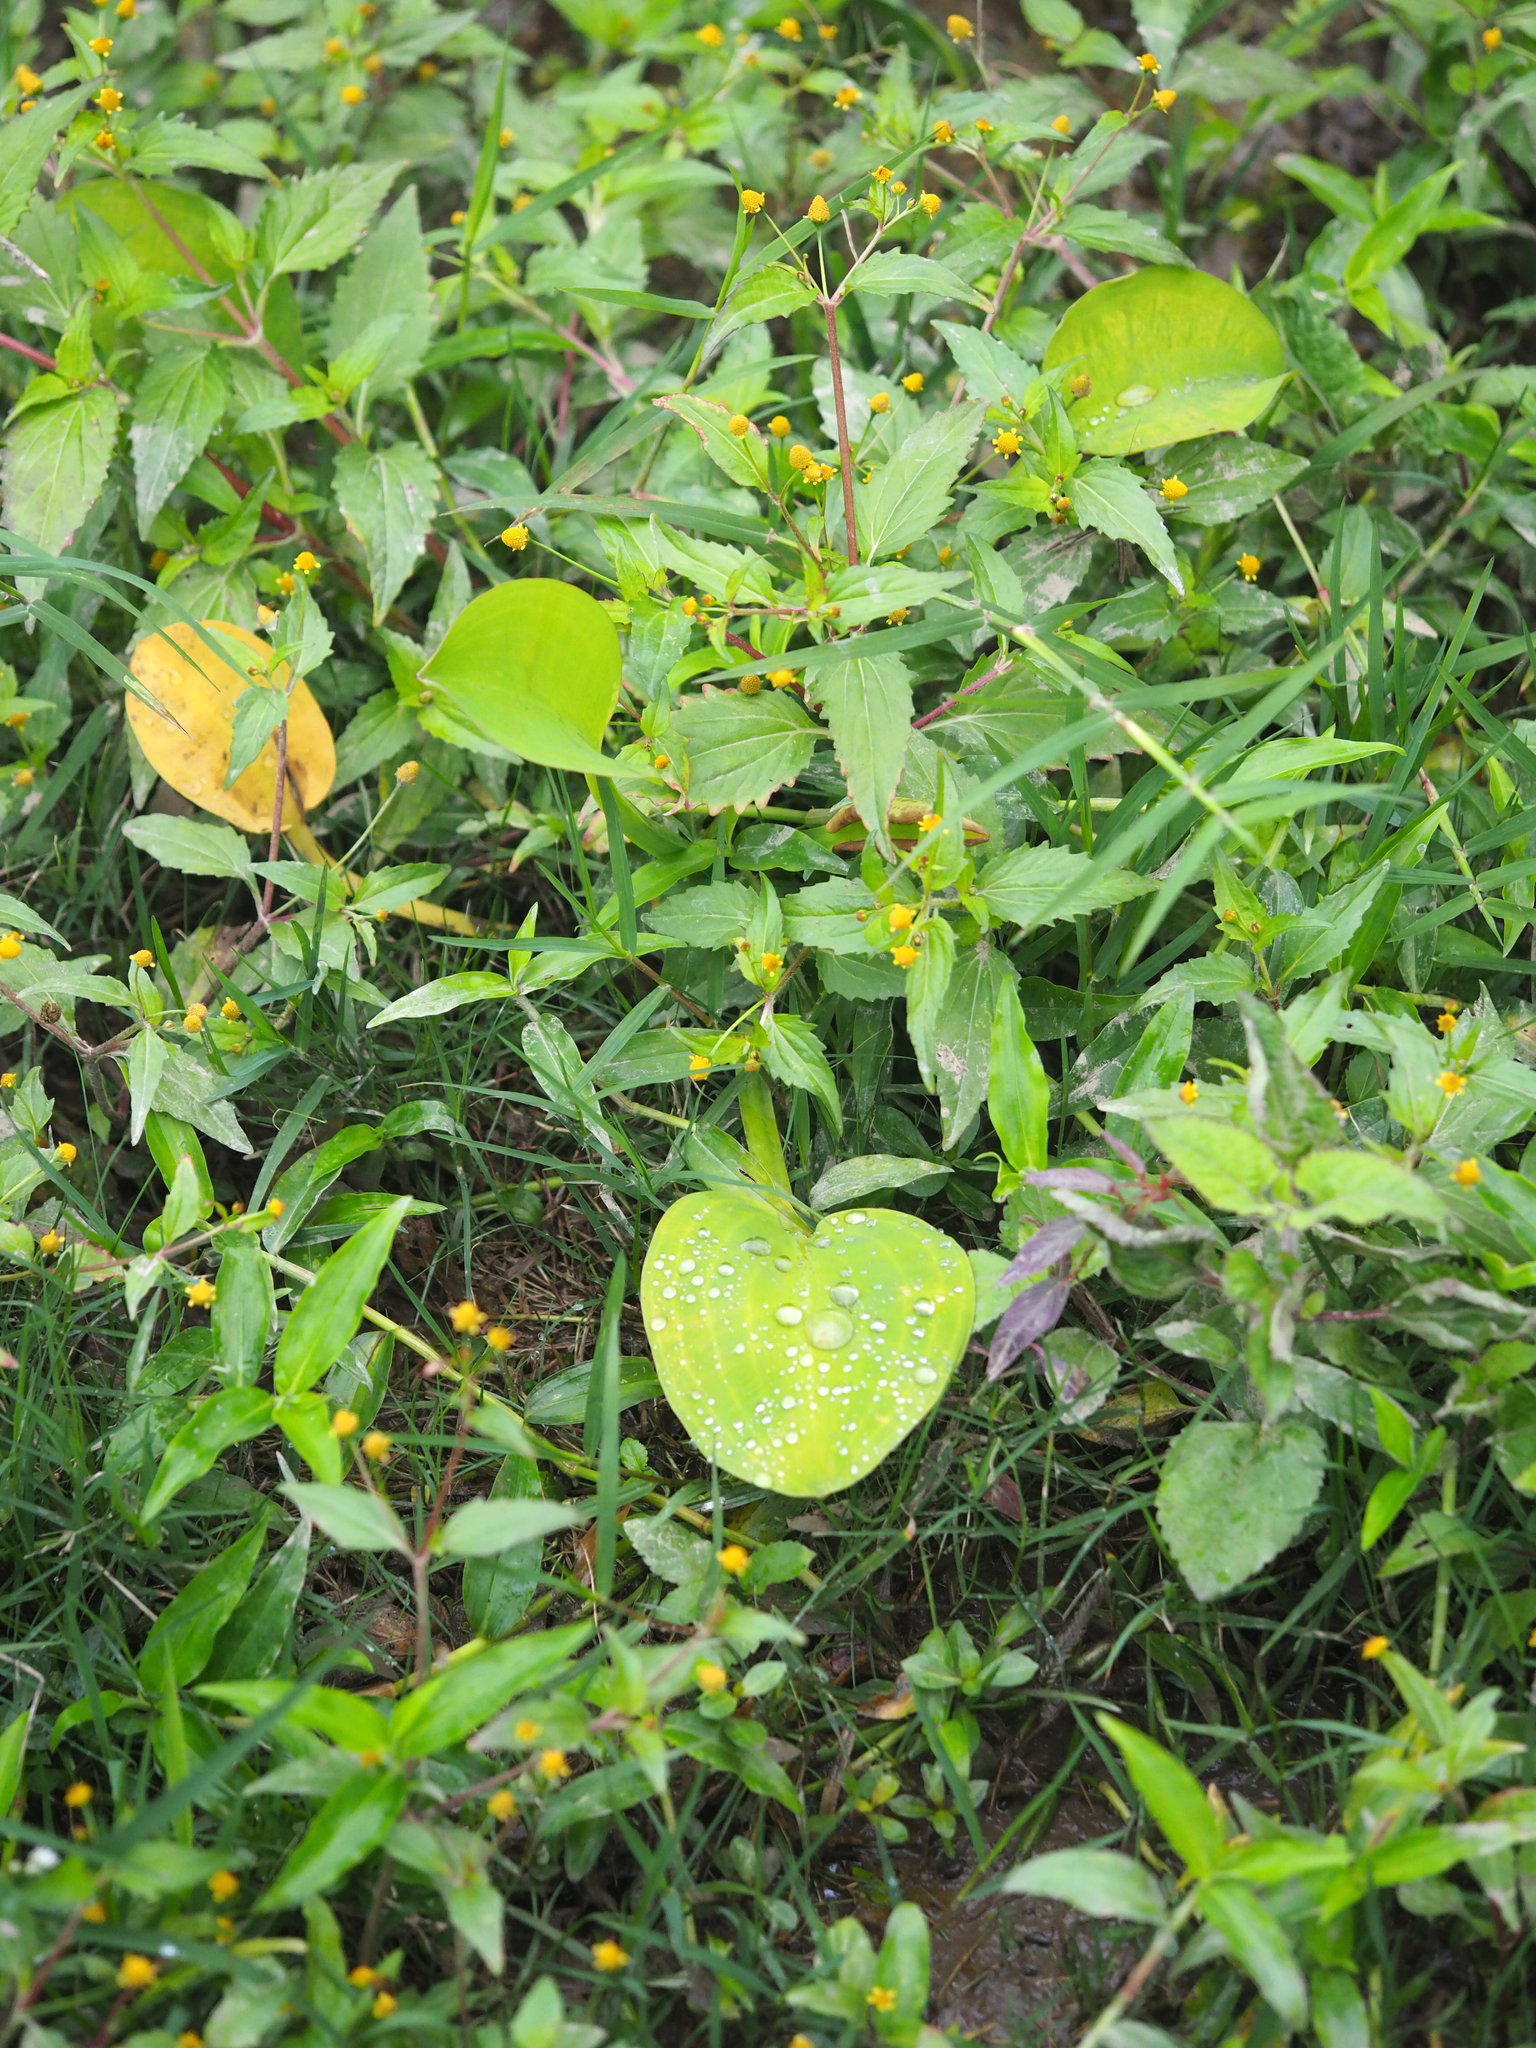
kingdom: Plantae
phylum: Tracheophyta
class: Liliopsida
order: Alismatales
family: Alismataceae
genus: Limnocharis
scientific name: Limnocharis flava
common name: Sawah-flower-rush
